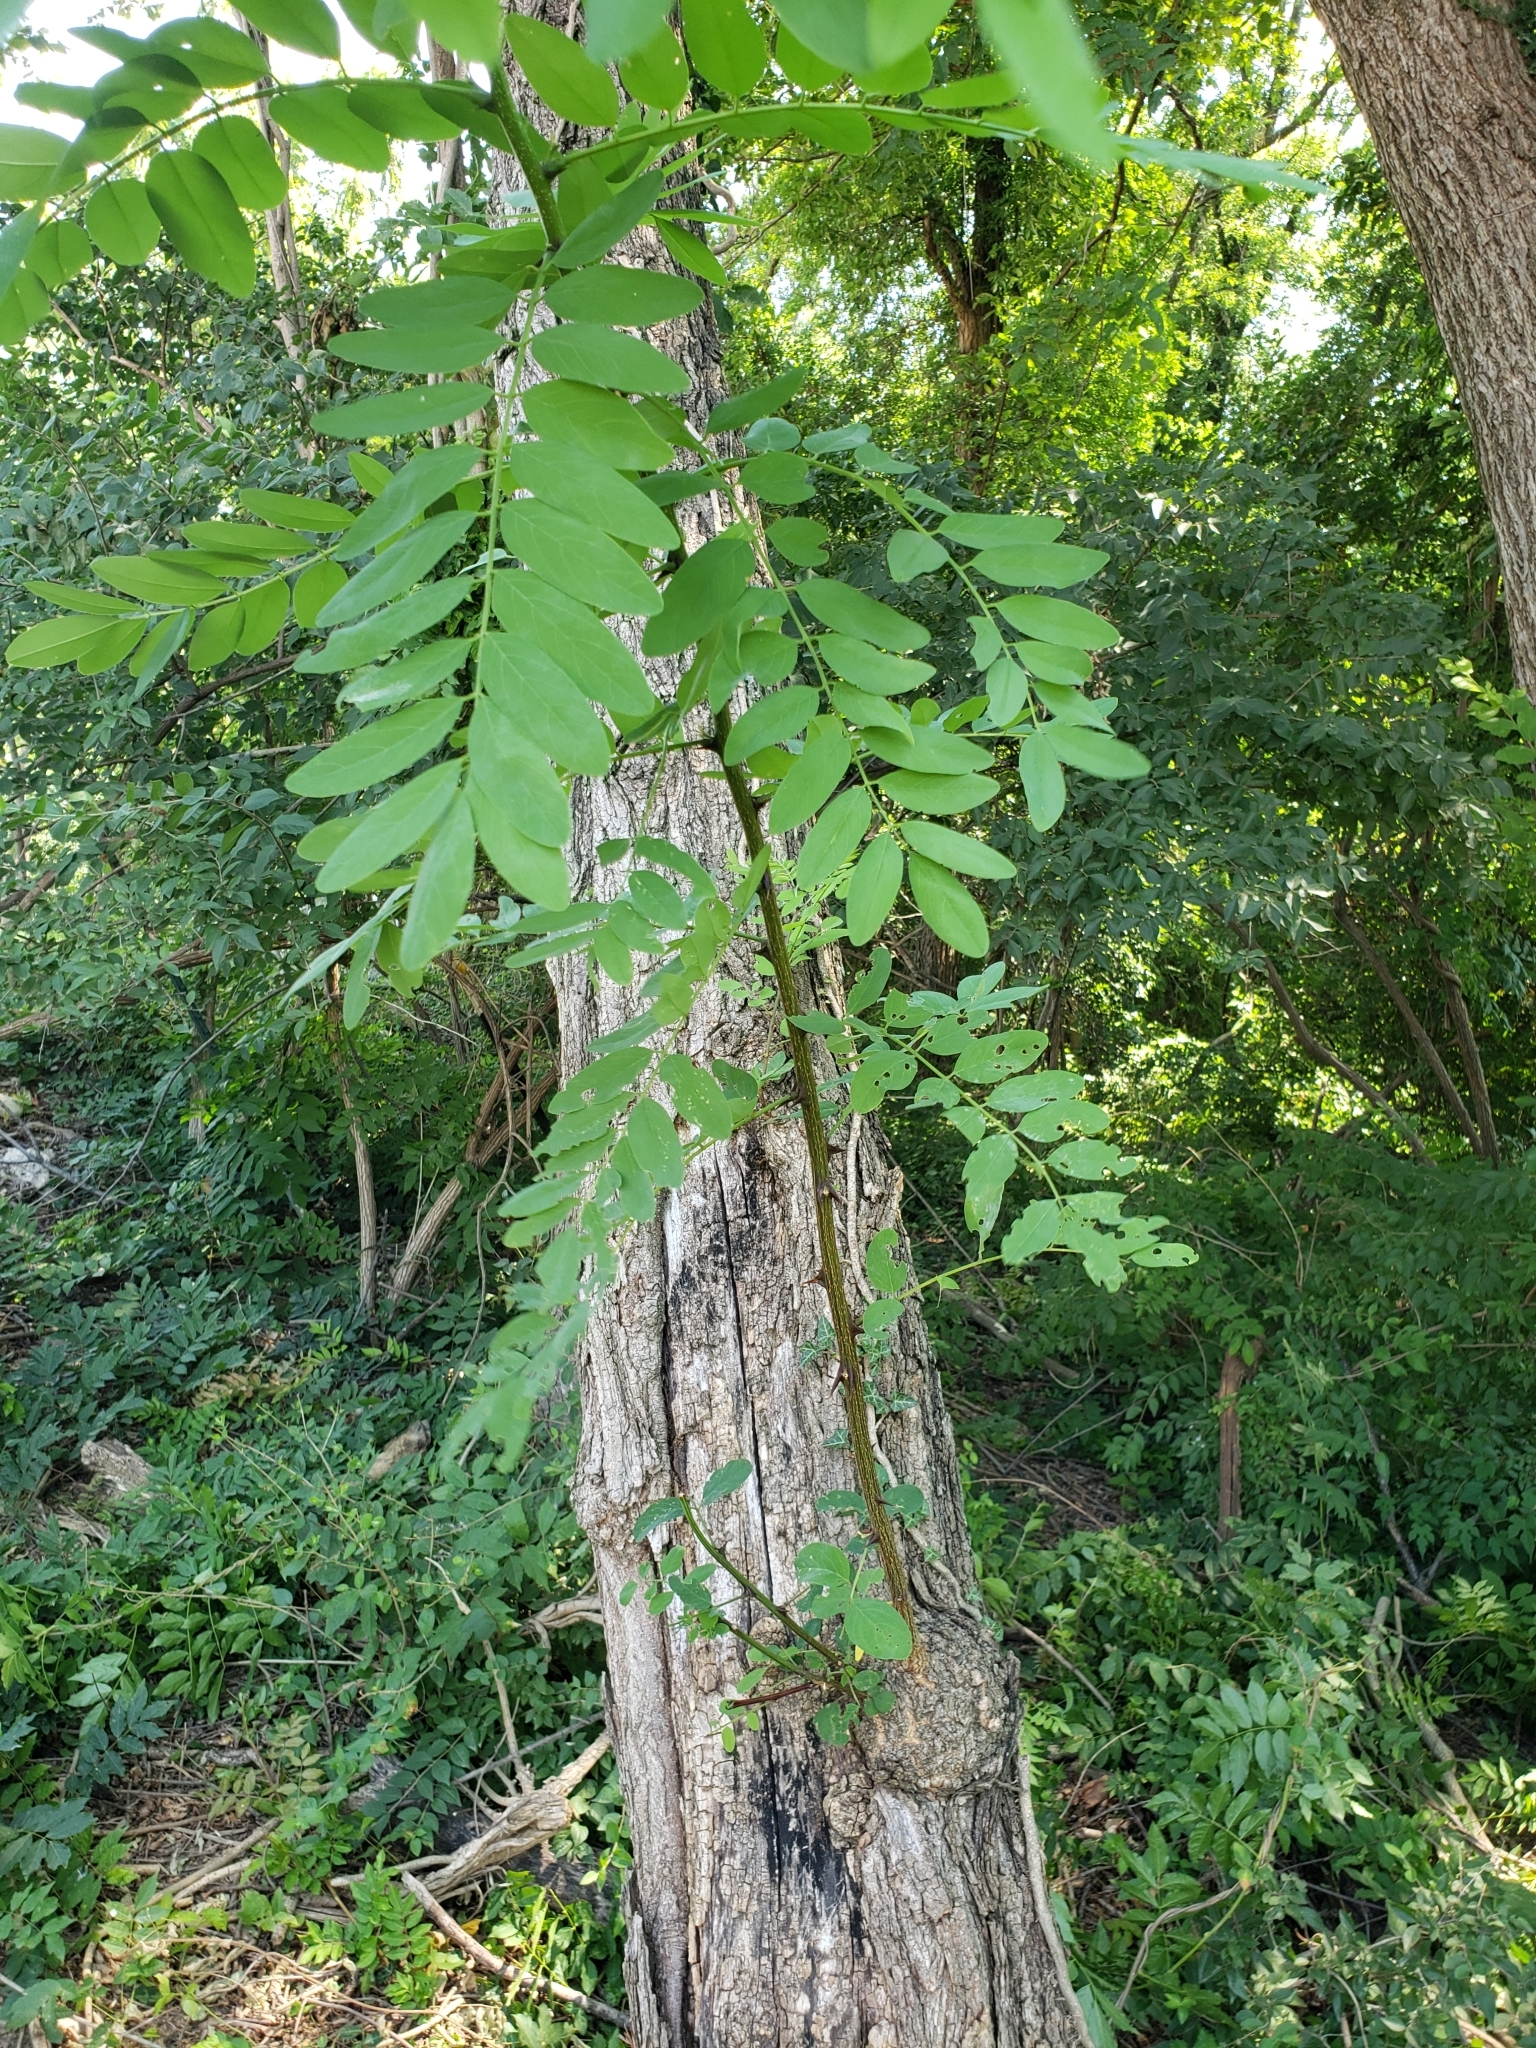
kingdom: Plantae
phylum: Tracheophyta
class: Magnoliopsida
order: Fabales
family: Fabaceae
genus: Robinia
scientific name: Robinia pseudoacacia
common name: Black locust
